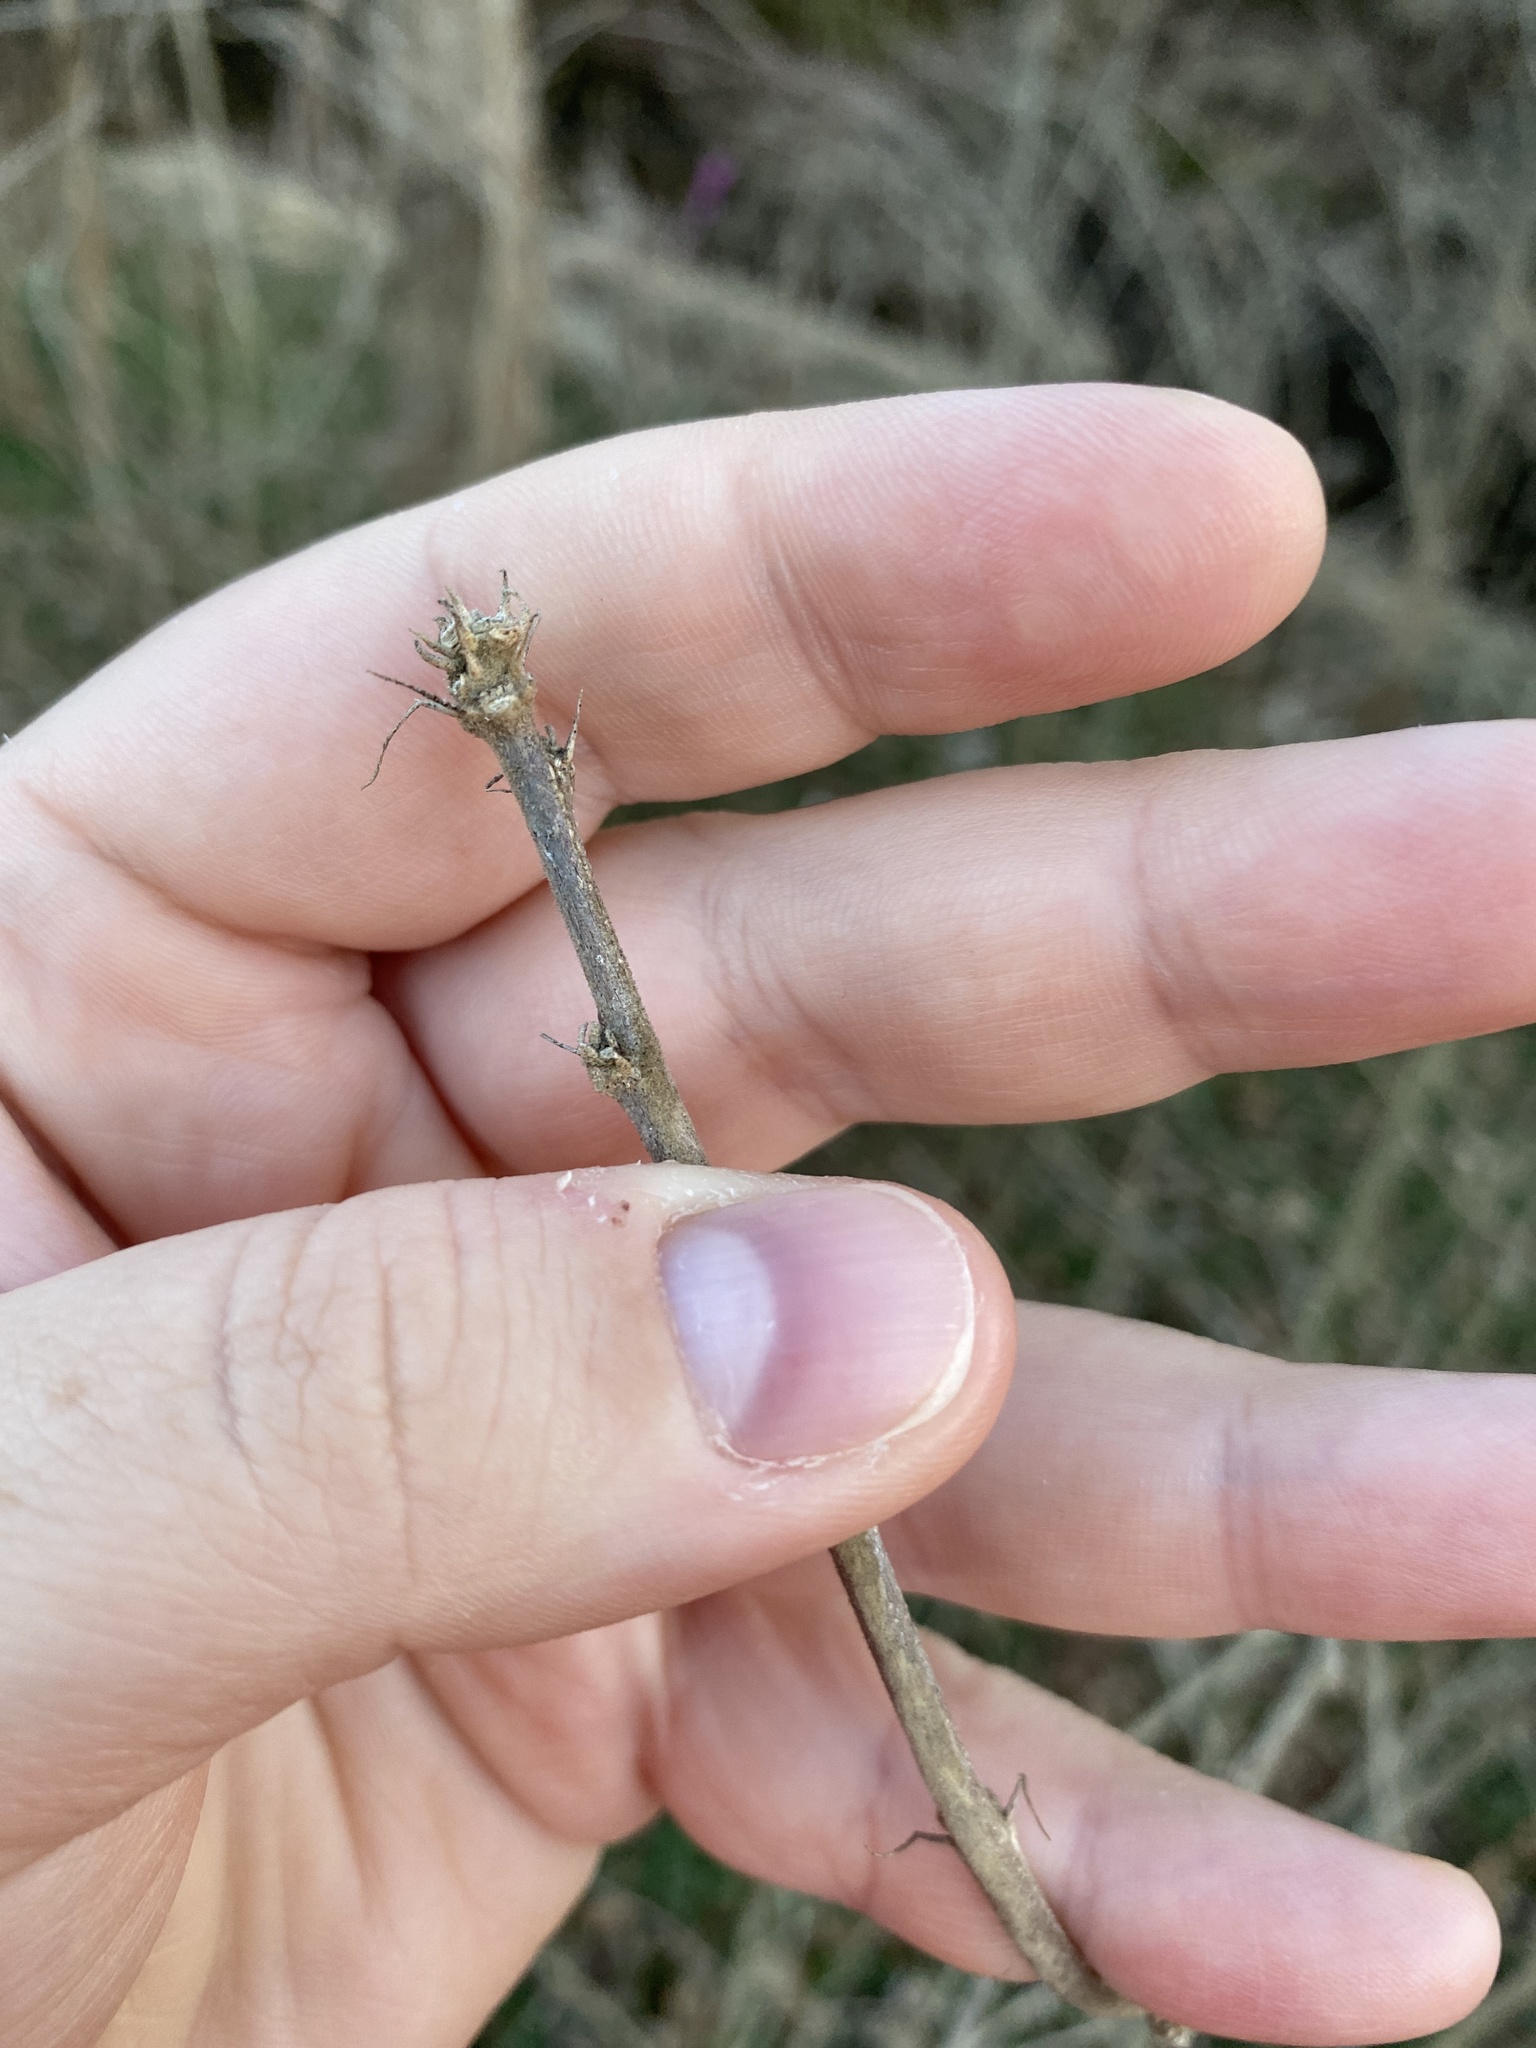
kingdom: Plantae
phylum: Tracheophyta
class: Magnoliopsida
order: Malvales
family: Malvaceae
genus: Hibiscus
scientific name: Hibiscus syriacus
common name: Syrian ketmia
